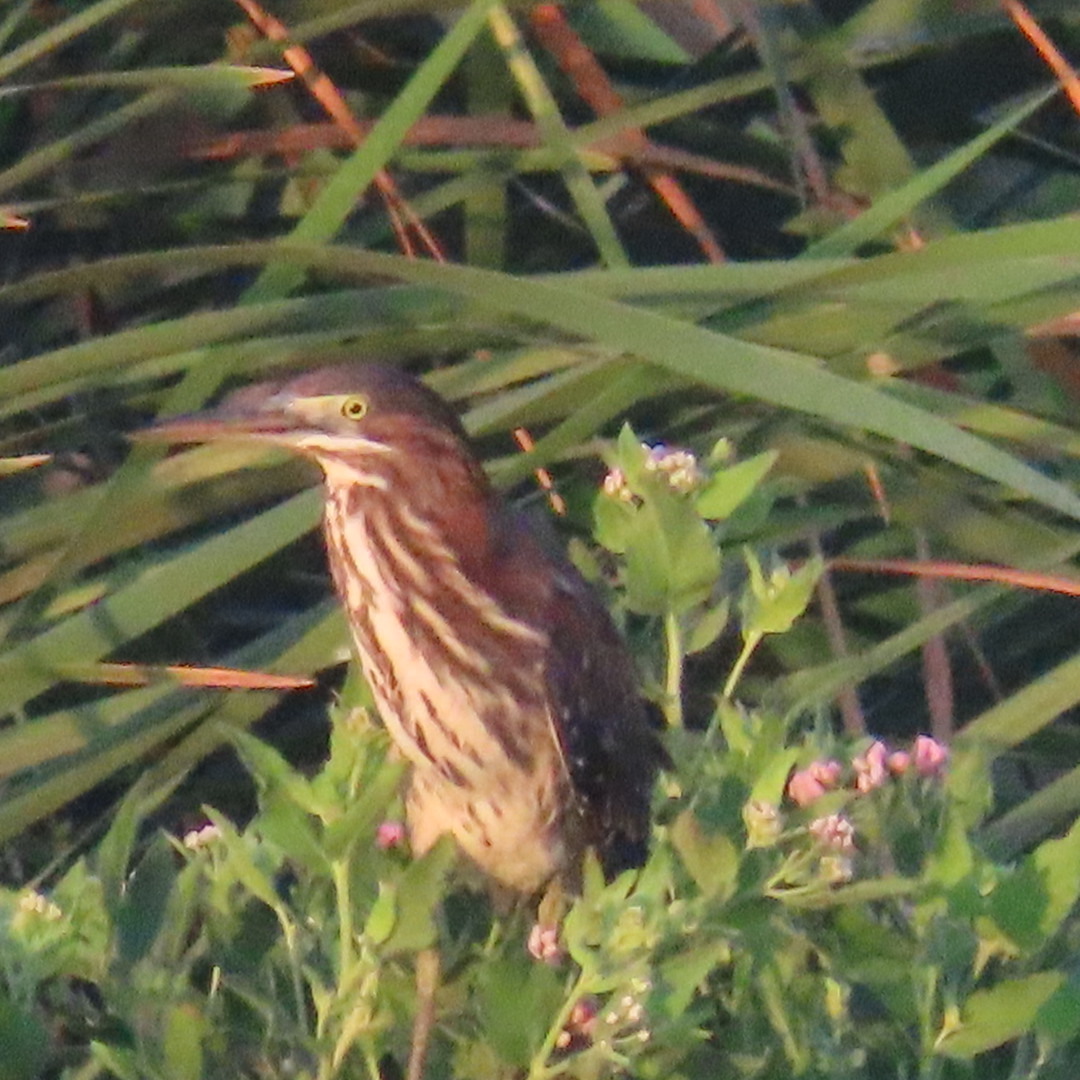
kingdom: Animalia
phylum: Chordata
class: Aves
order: Pelecaniformes
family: Ardeidae
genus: Butorides
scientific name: Butorides virescens
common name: Green heron
